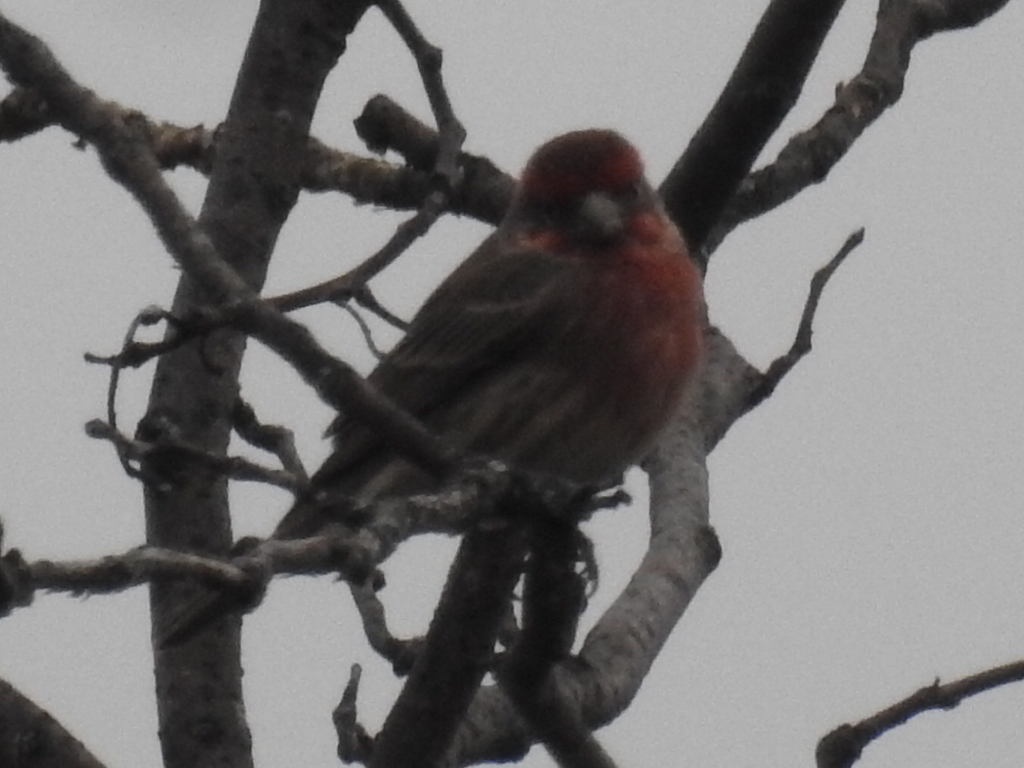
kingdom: Animalia
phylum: Chordata
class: Aves
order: Passeriformes
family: Fringillidae
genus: Haemorhous
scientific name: Haemorhous mexicanus
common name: House finch
